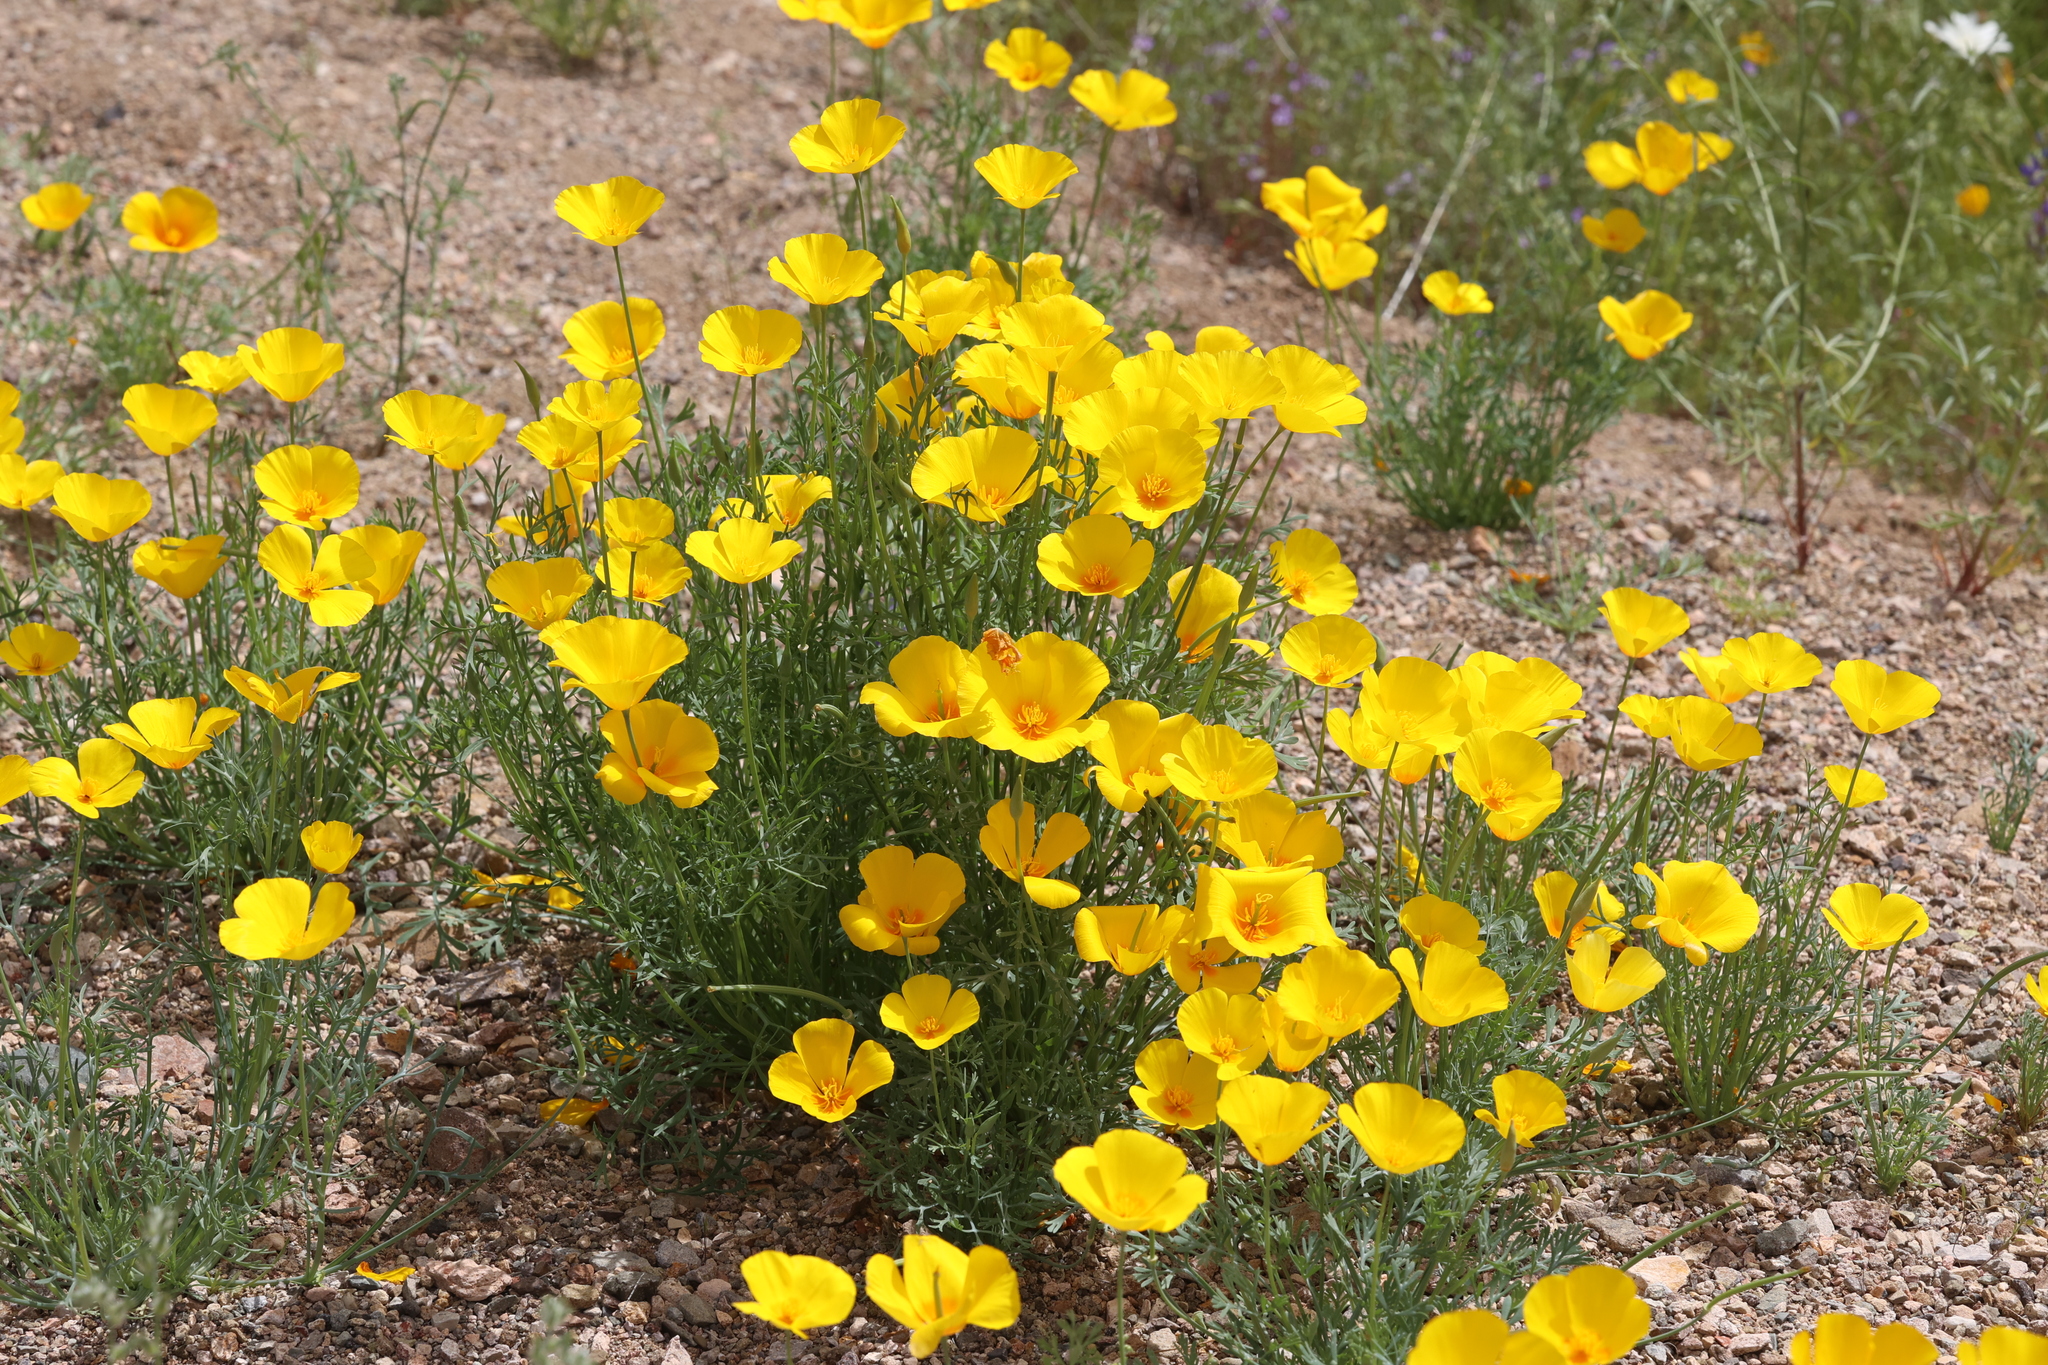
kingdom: Plantae
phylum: Tracheophyta
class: Magnoliopsida
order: Ranunculales
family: Papaveraceae
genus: Eschscholzia
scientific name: Eschscholzia californica
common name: California poppy
